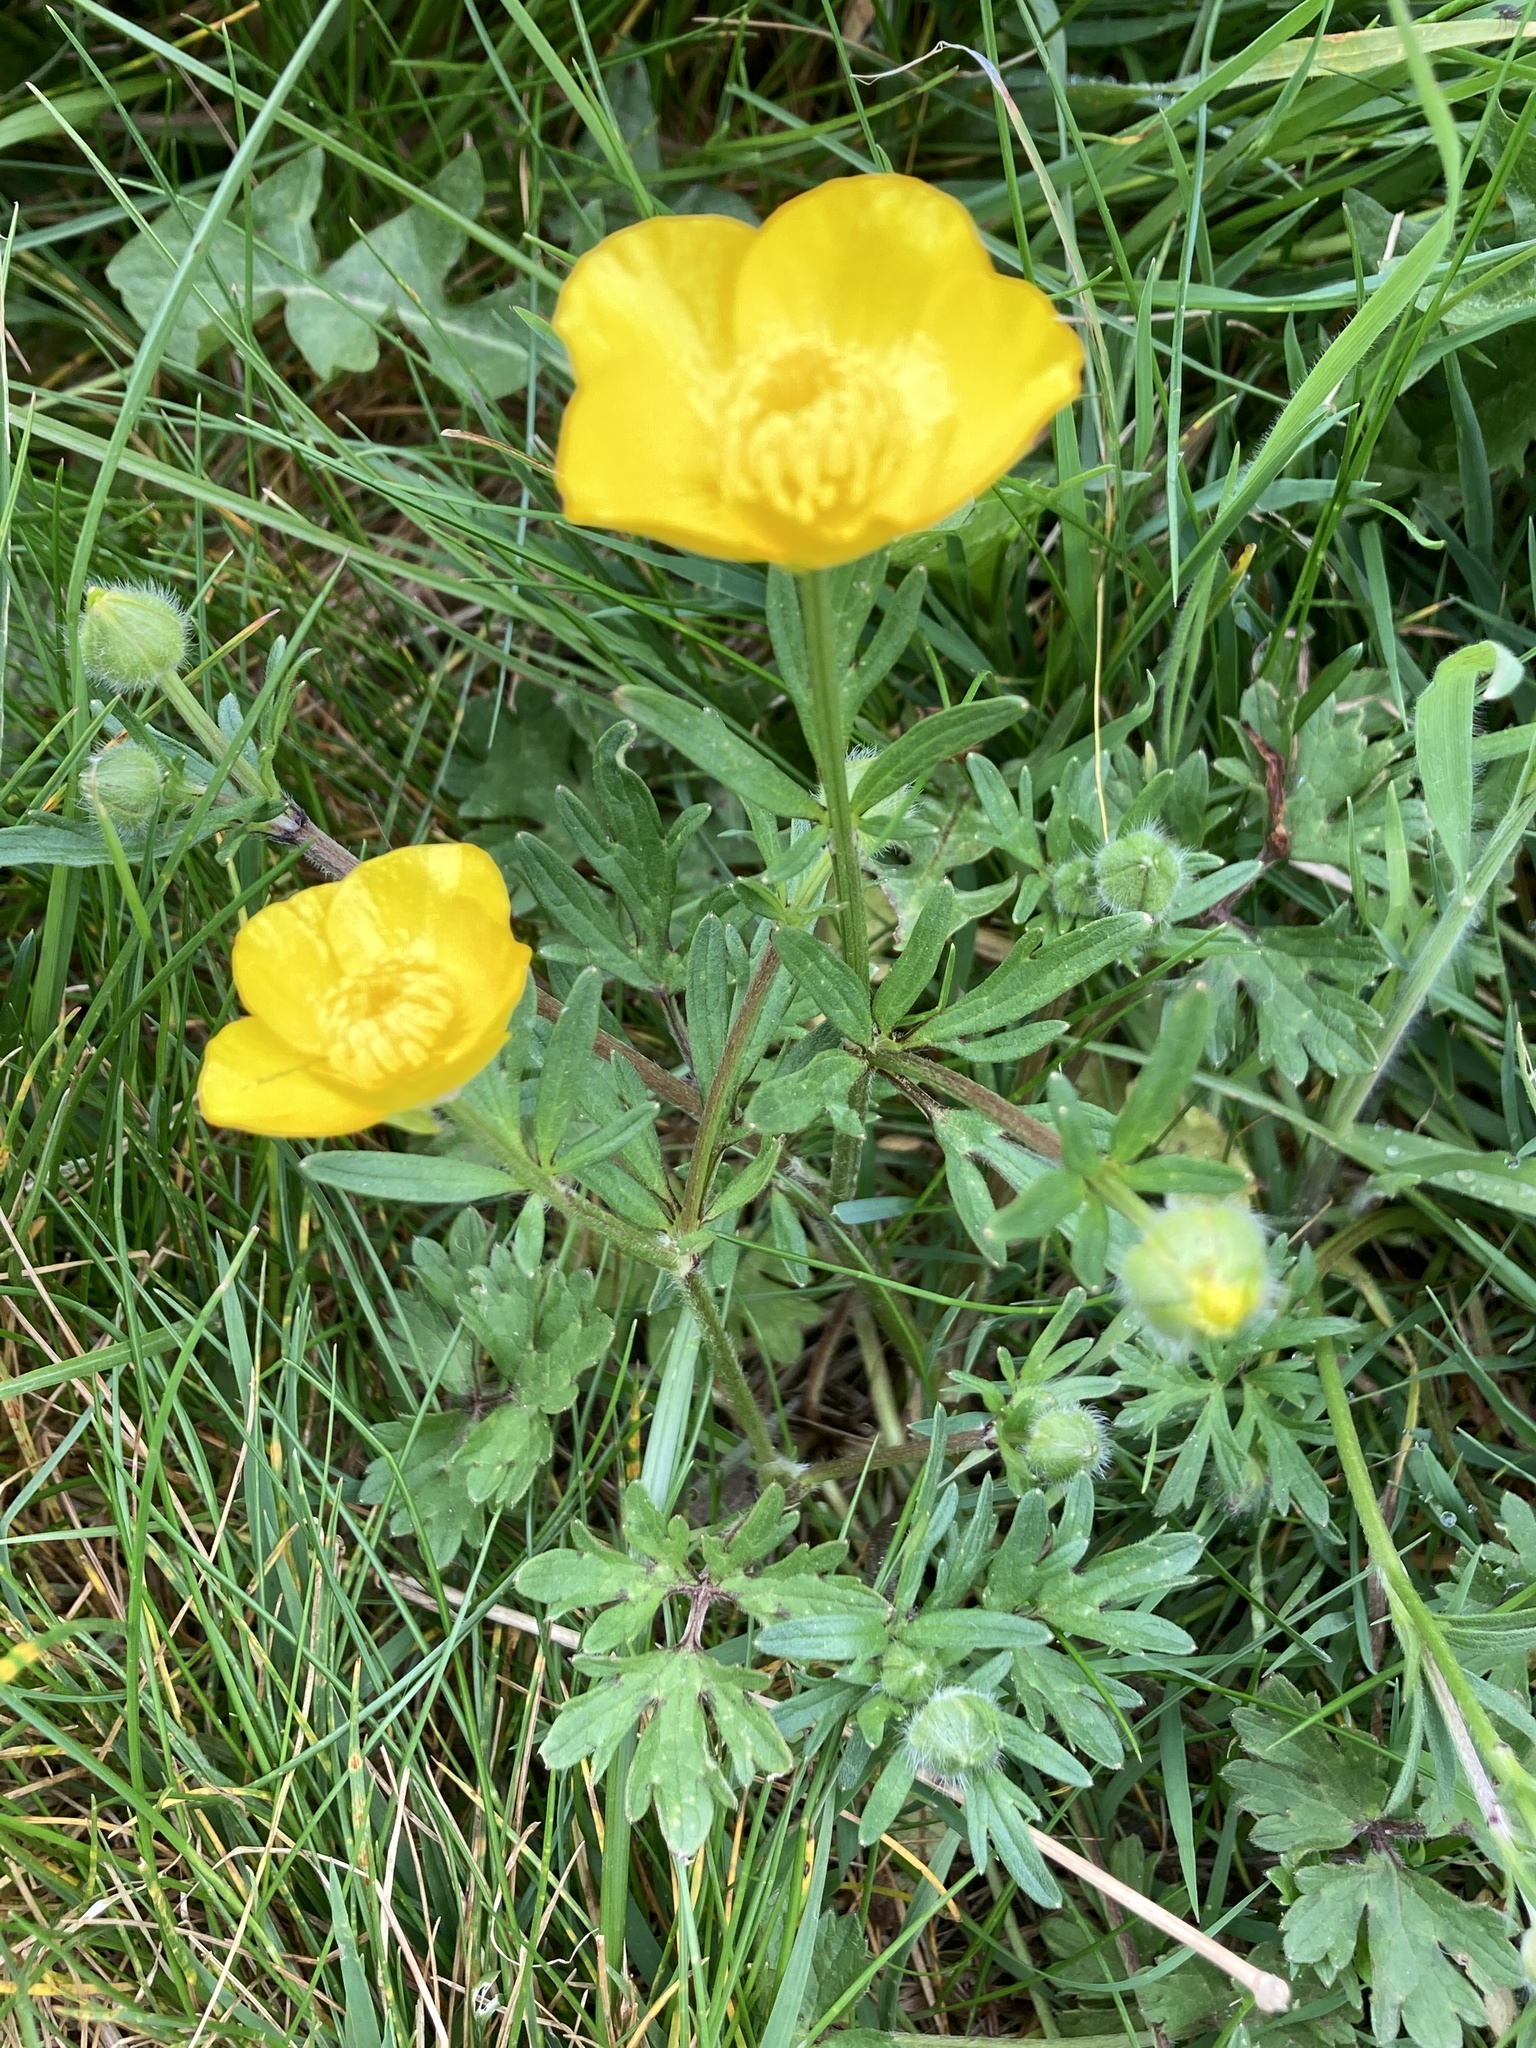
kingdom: Plantae
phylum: Tracheophyta
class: Magnoliopsida
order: Ranunculales
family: Ranunculaceae
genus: Ranunculus
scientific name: Ranunculus bulbosus
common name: Bulbous buttercup
